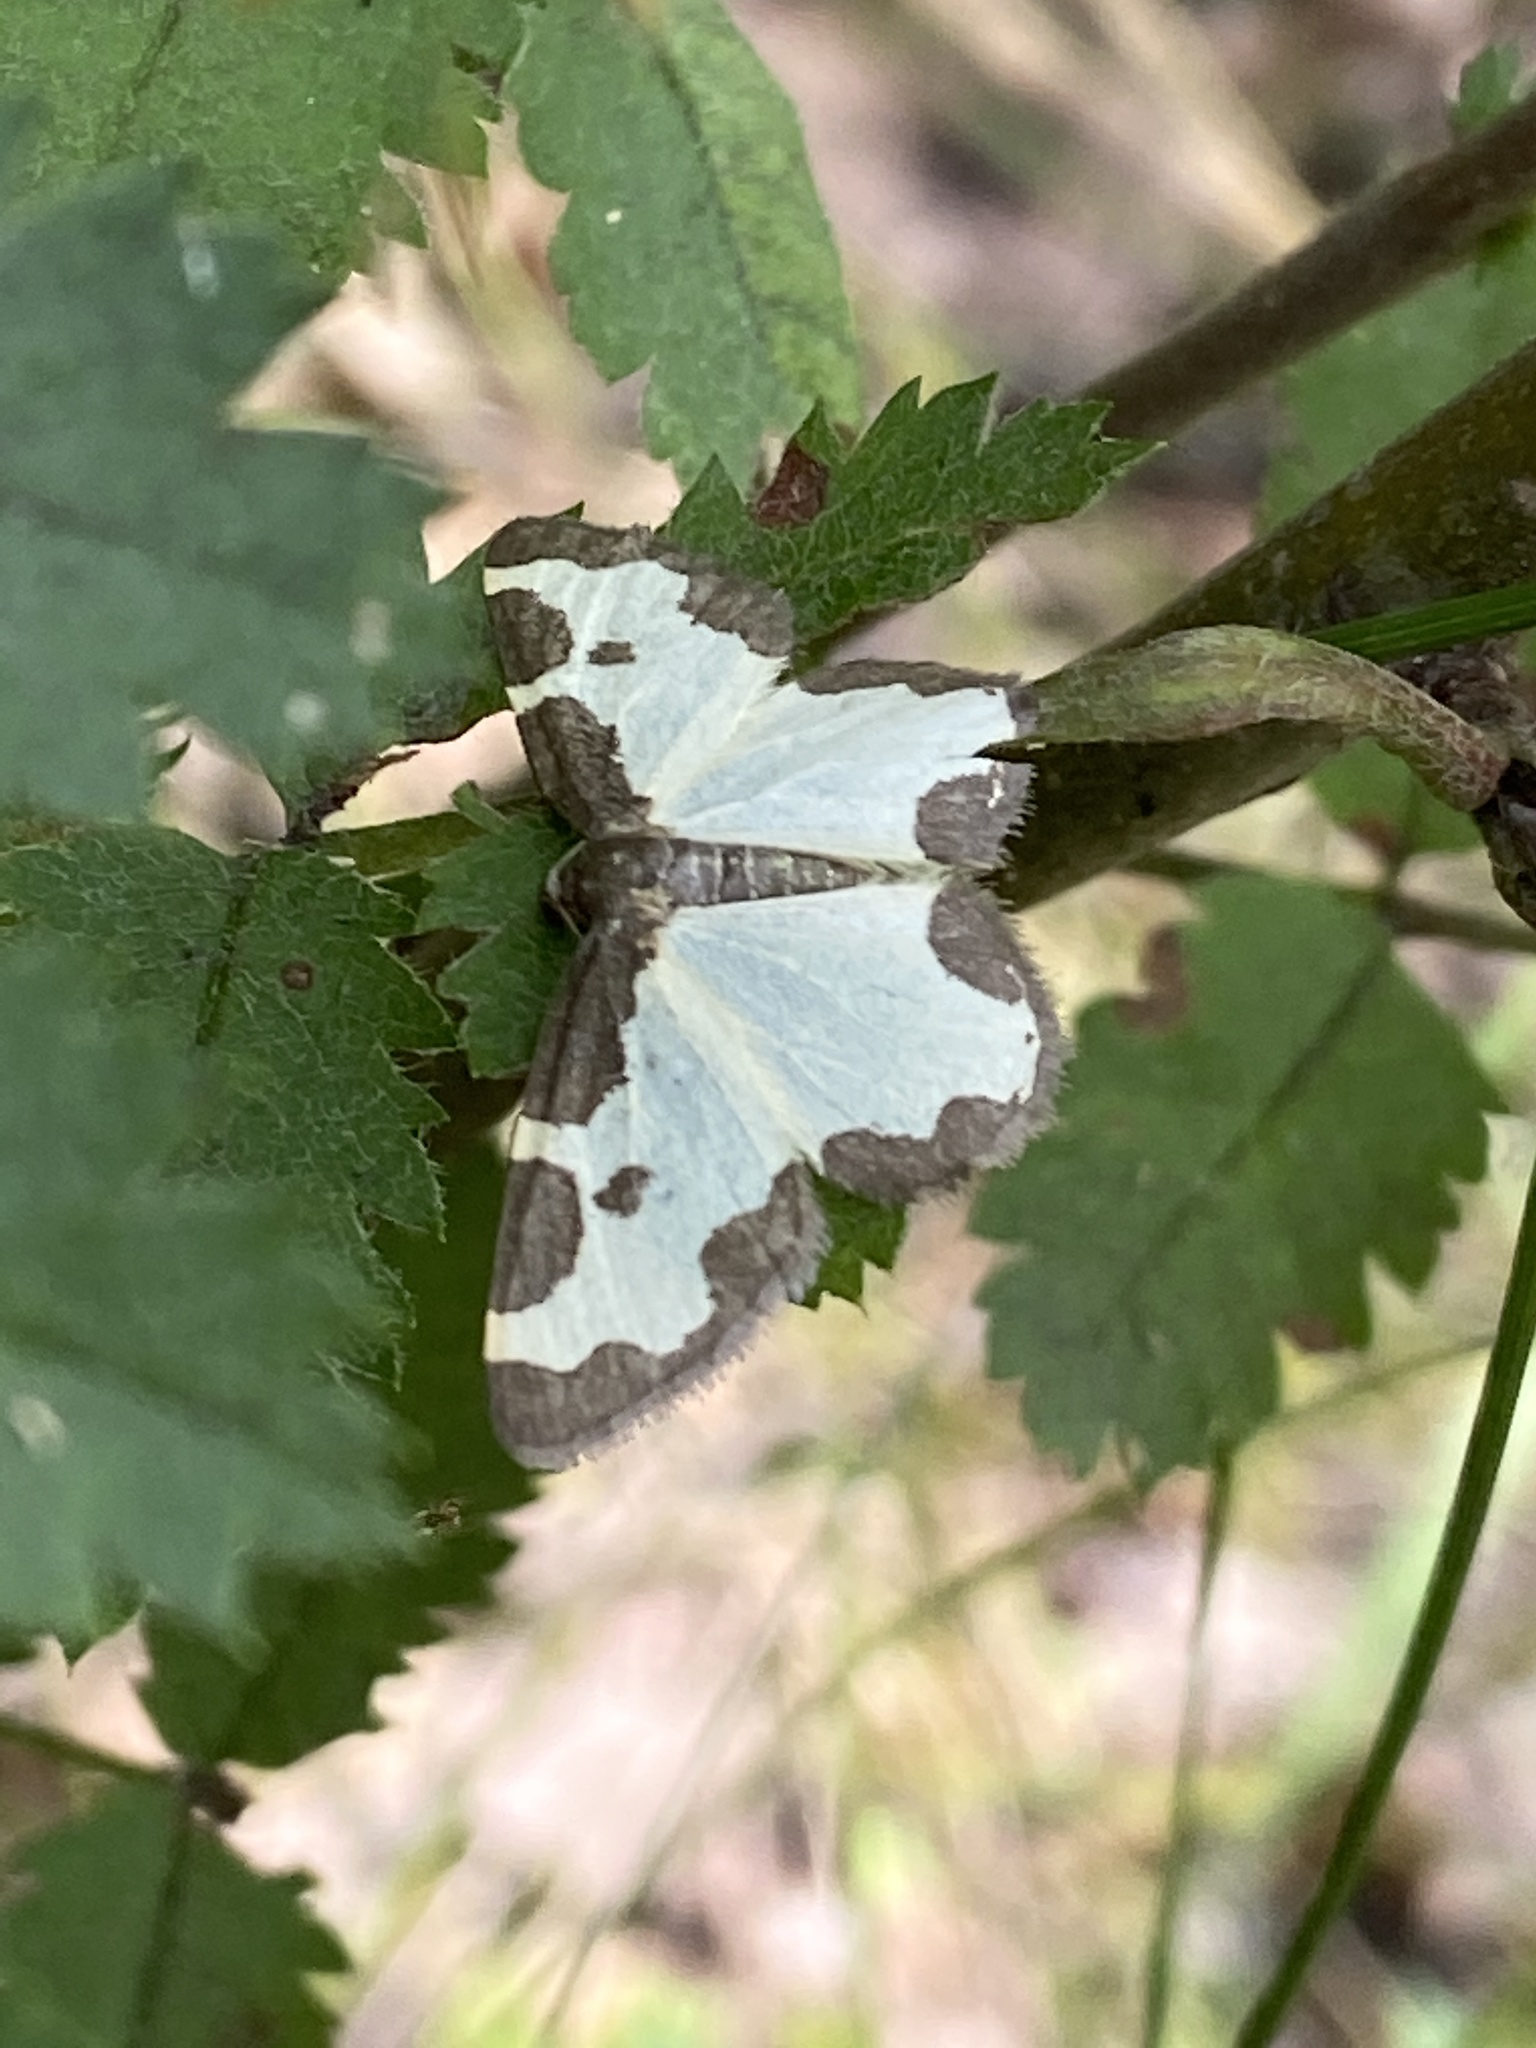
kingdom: Animalia
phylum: Arthropoda
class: Insecta
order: Lepidoptera
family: Geometridae
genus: Lomaspilis
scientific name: Lomaspilis marginata
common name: Clouded border
